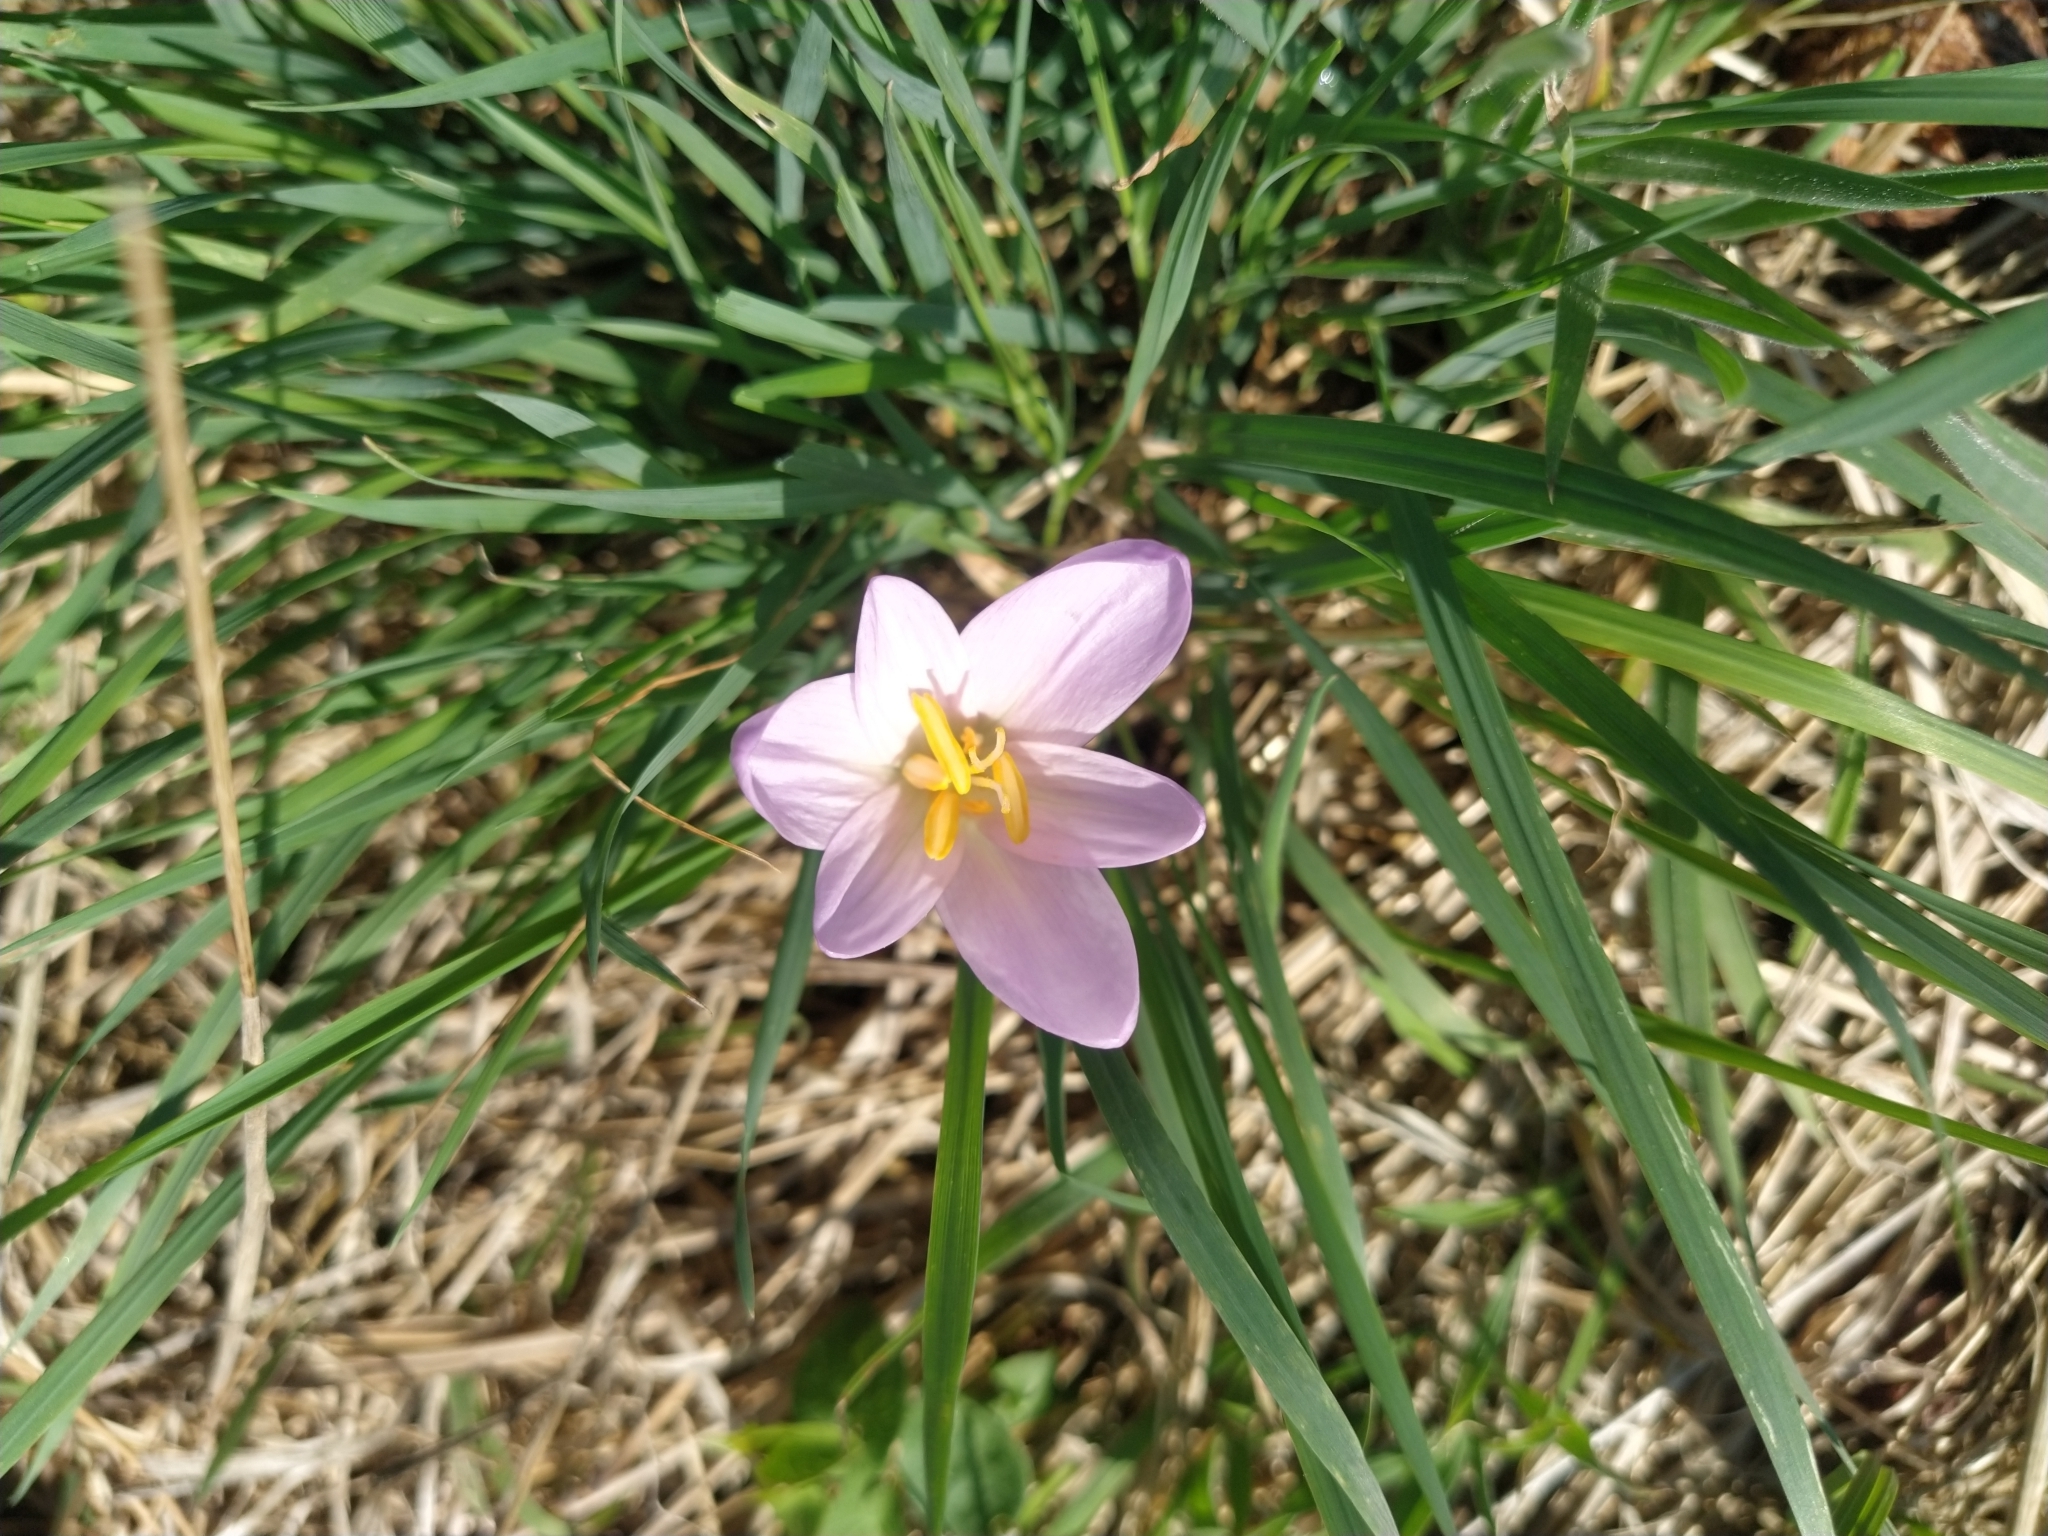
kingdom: Plantae
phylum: Tracheophyta
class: Liliopsida
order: Liliales
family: Colchicaceae
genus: Colchicum
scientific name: Colchicum autumnale
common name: Autumn crocus
